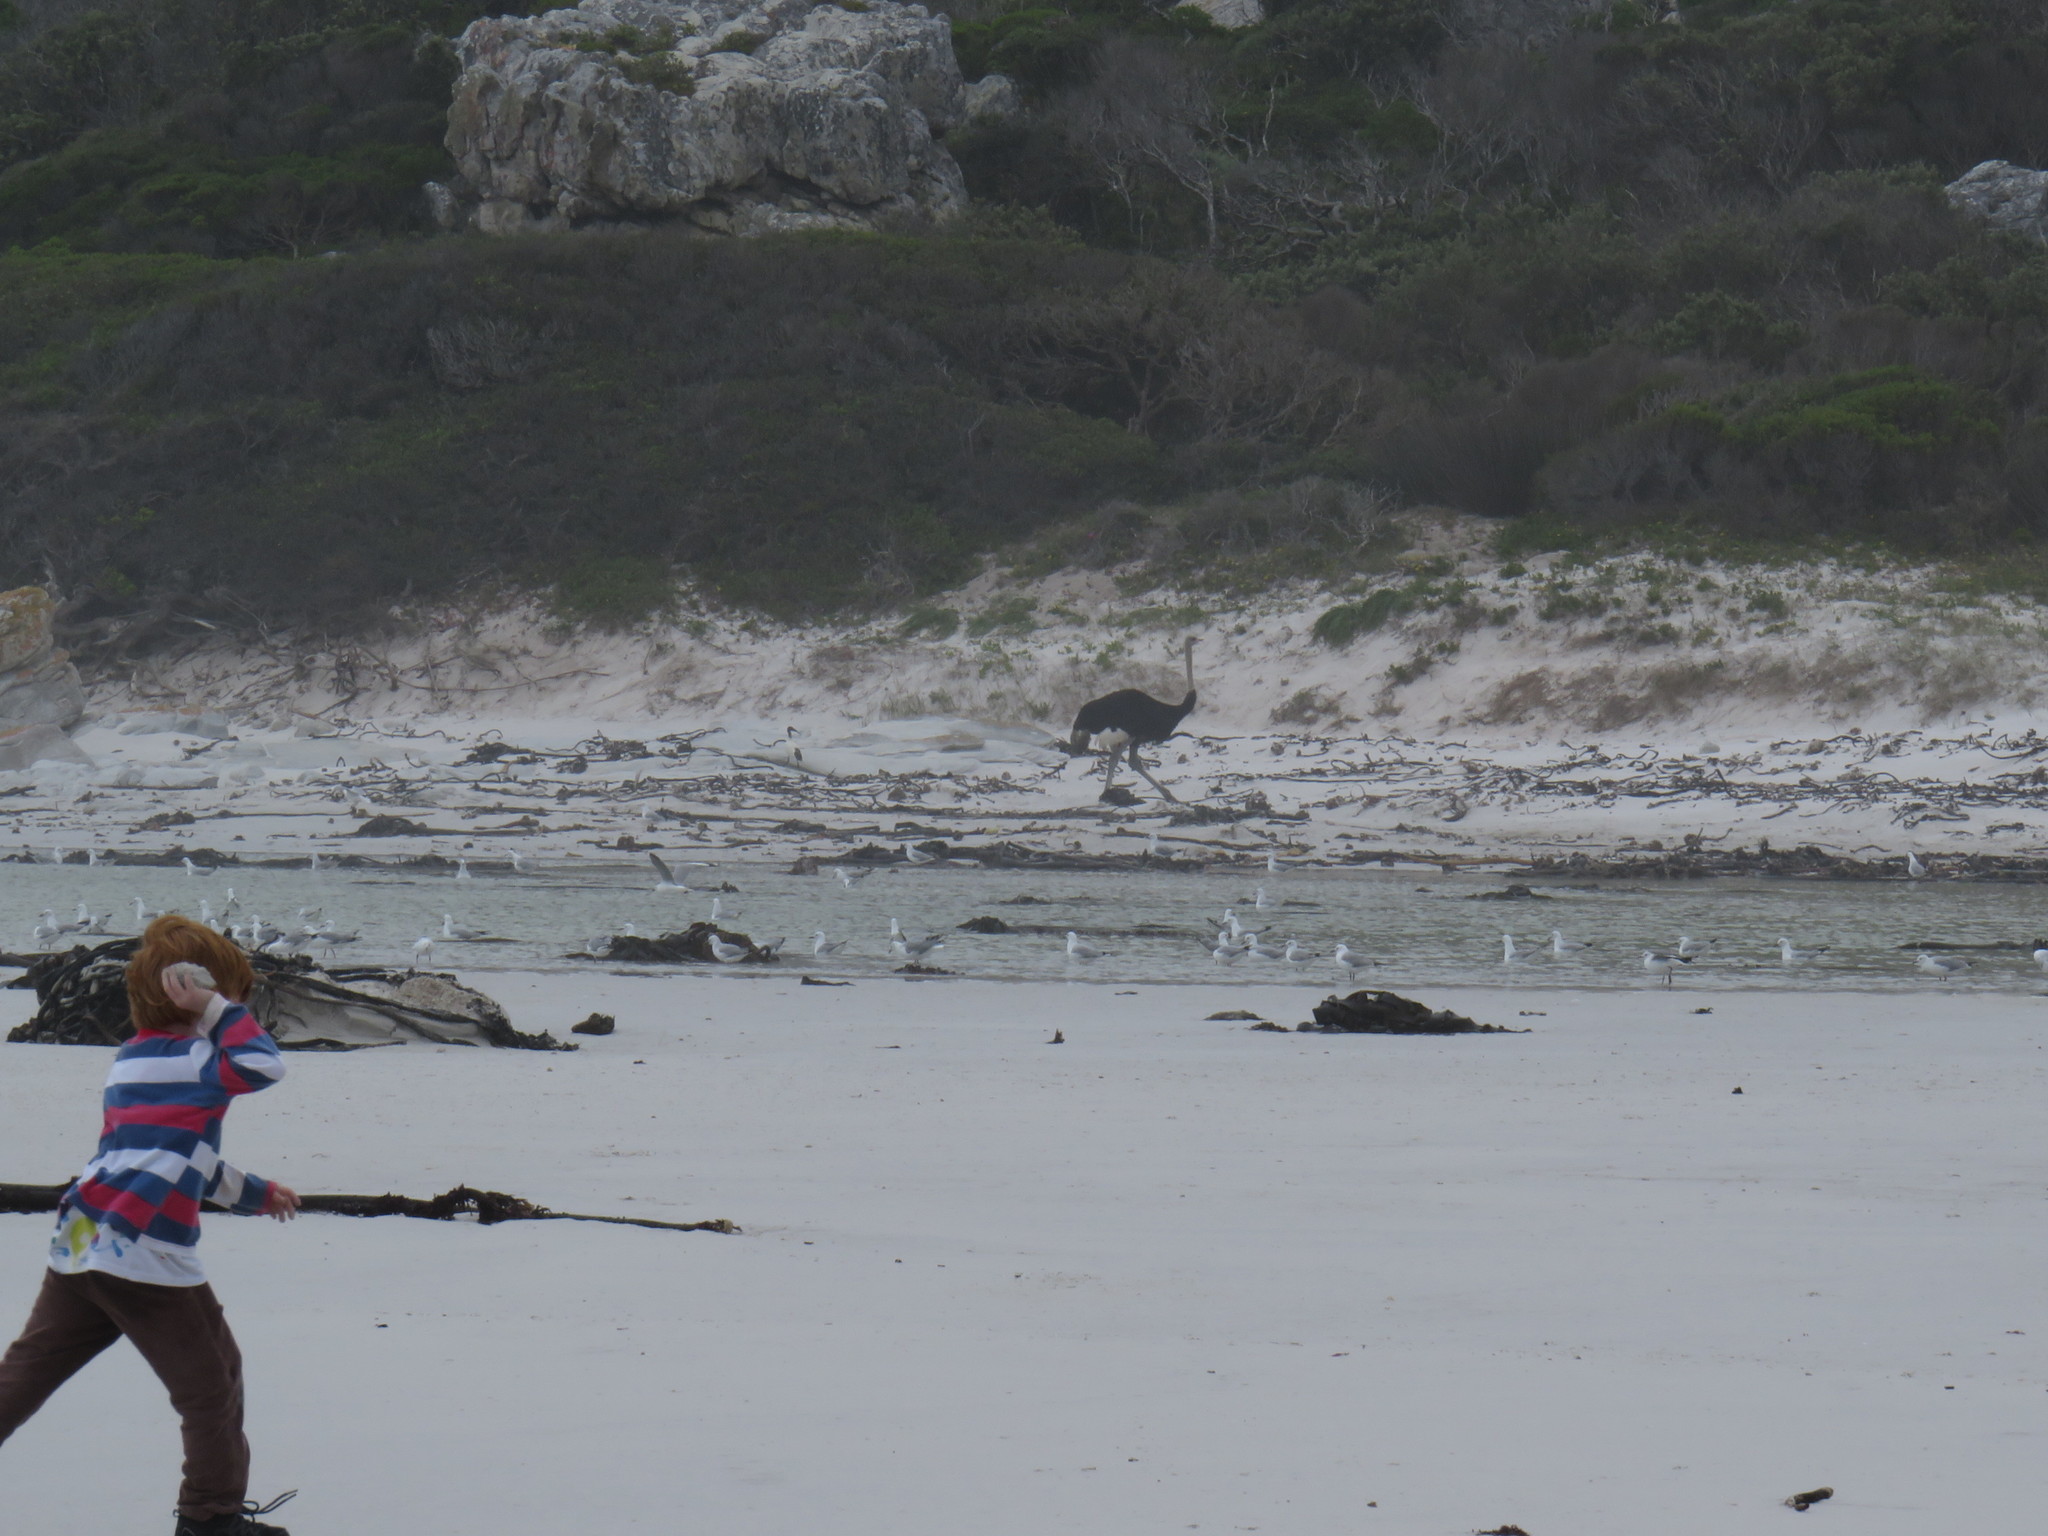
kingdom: Animalia
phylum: Chordata
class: Aves
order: Struthioniformes
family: Struthionidae
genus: Struthio
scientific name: Struthio camelus
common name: Common ostrich
